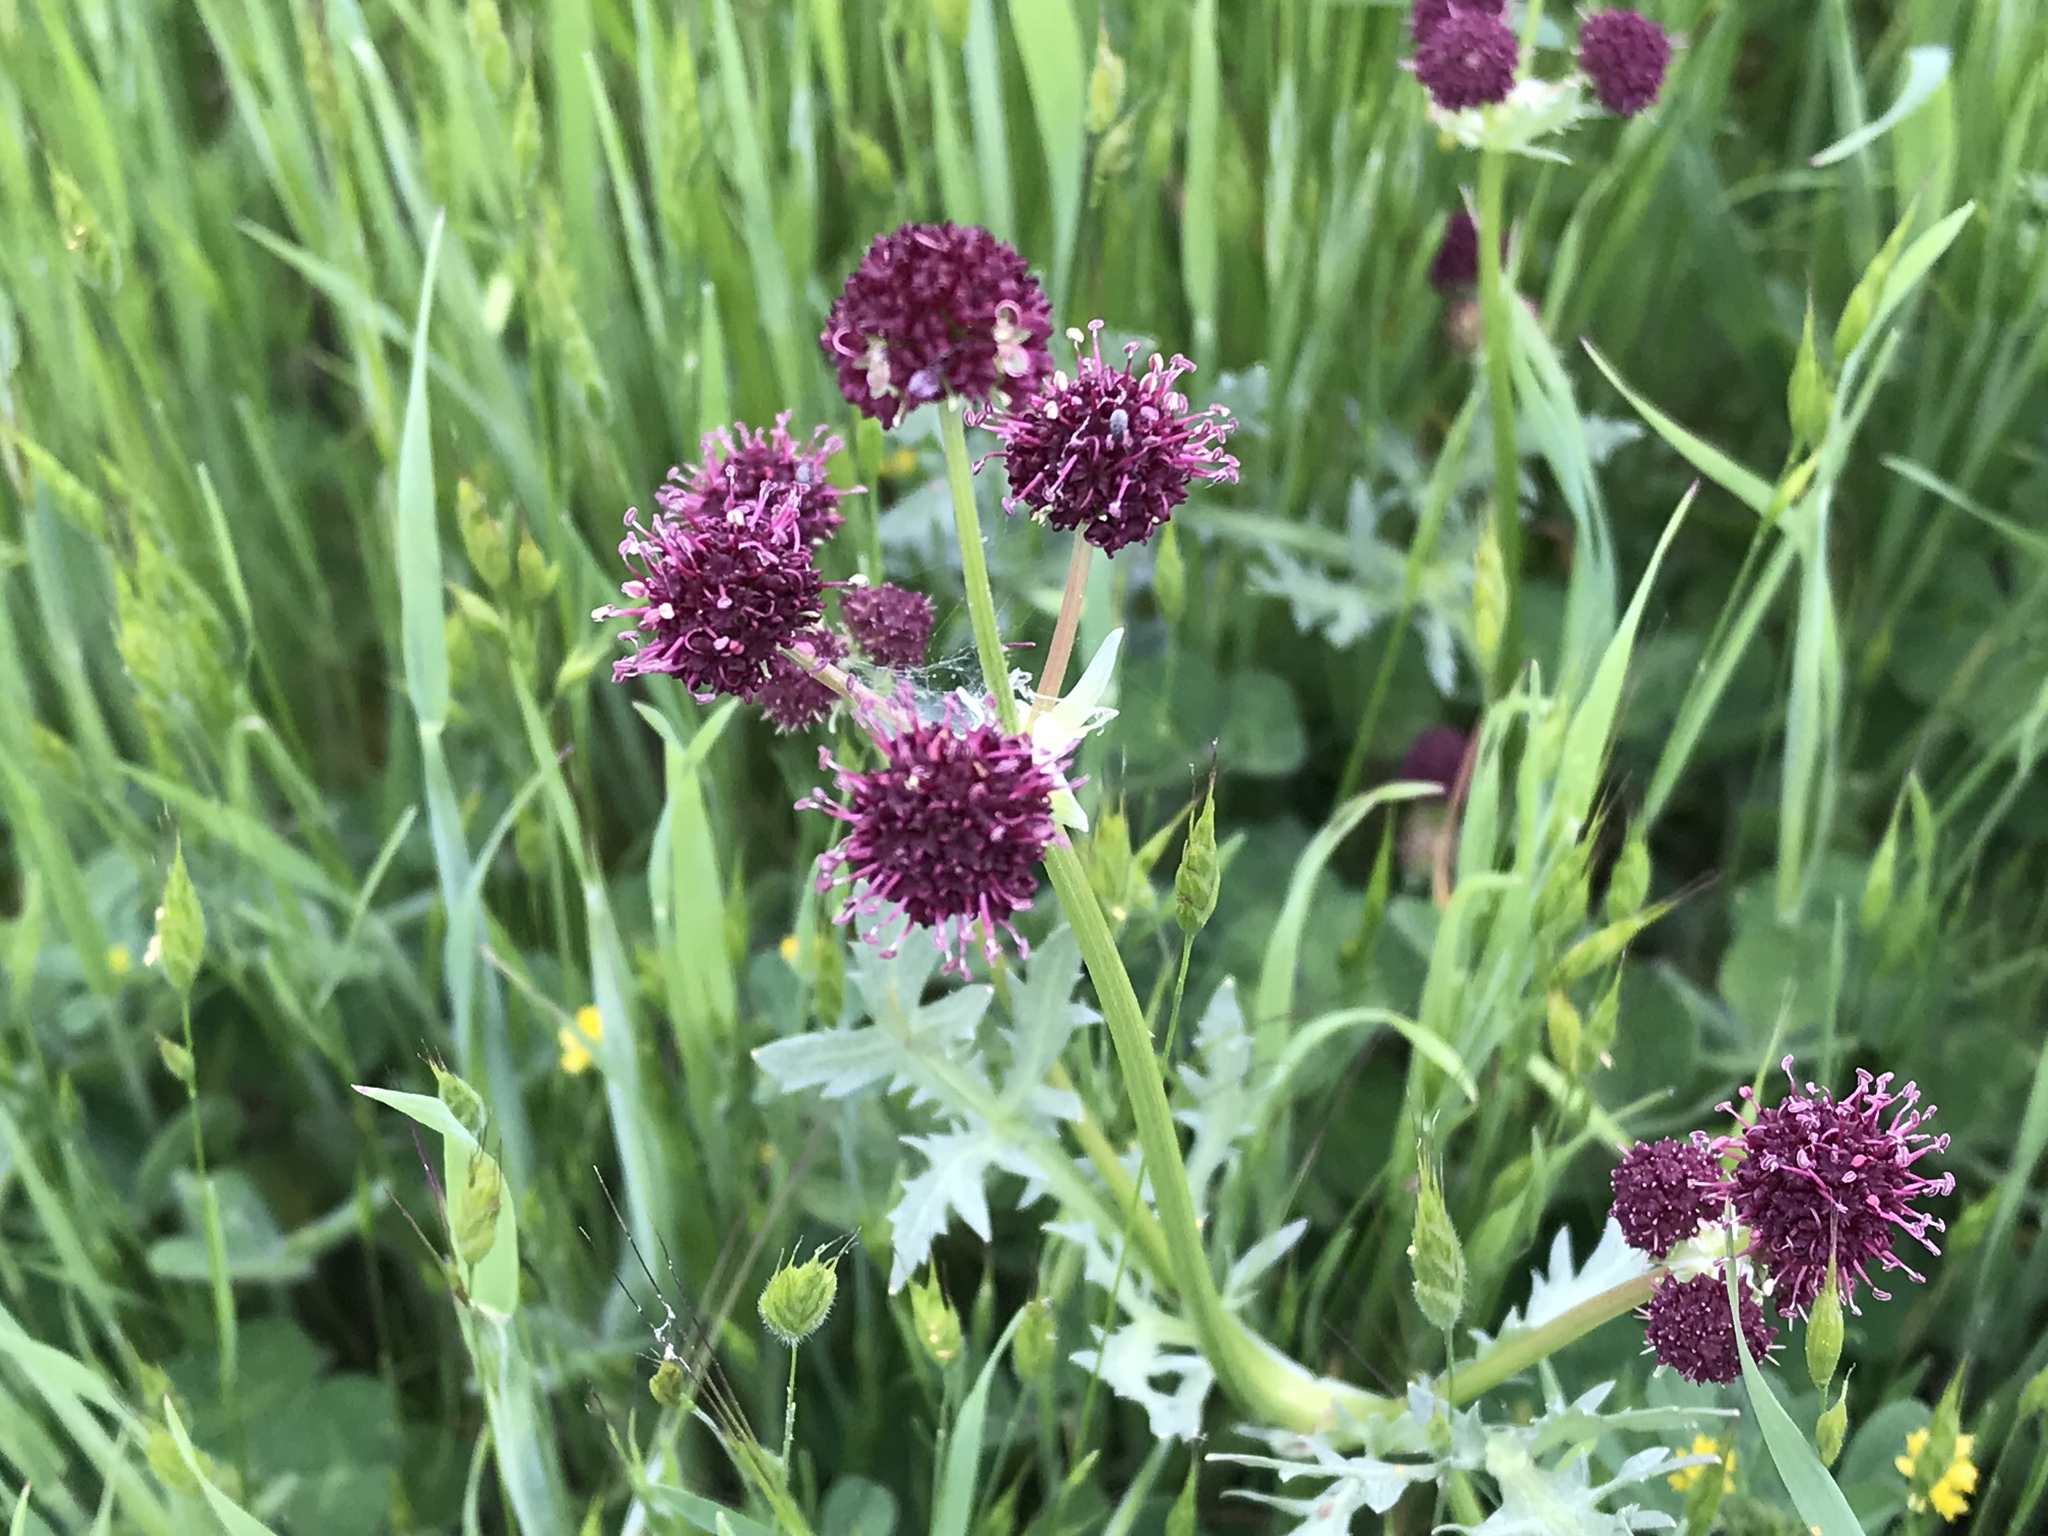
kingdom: Plantae
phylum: Tracheophyta
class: Magnoliopsida
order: Apiales
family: Apiaceae
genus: Sanicula
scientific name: Sanicula bipinnatifida
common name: Shoe-buttons
